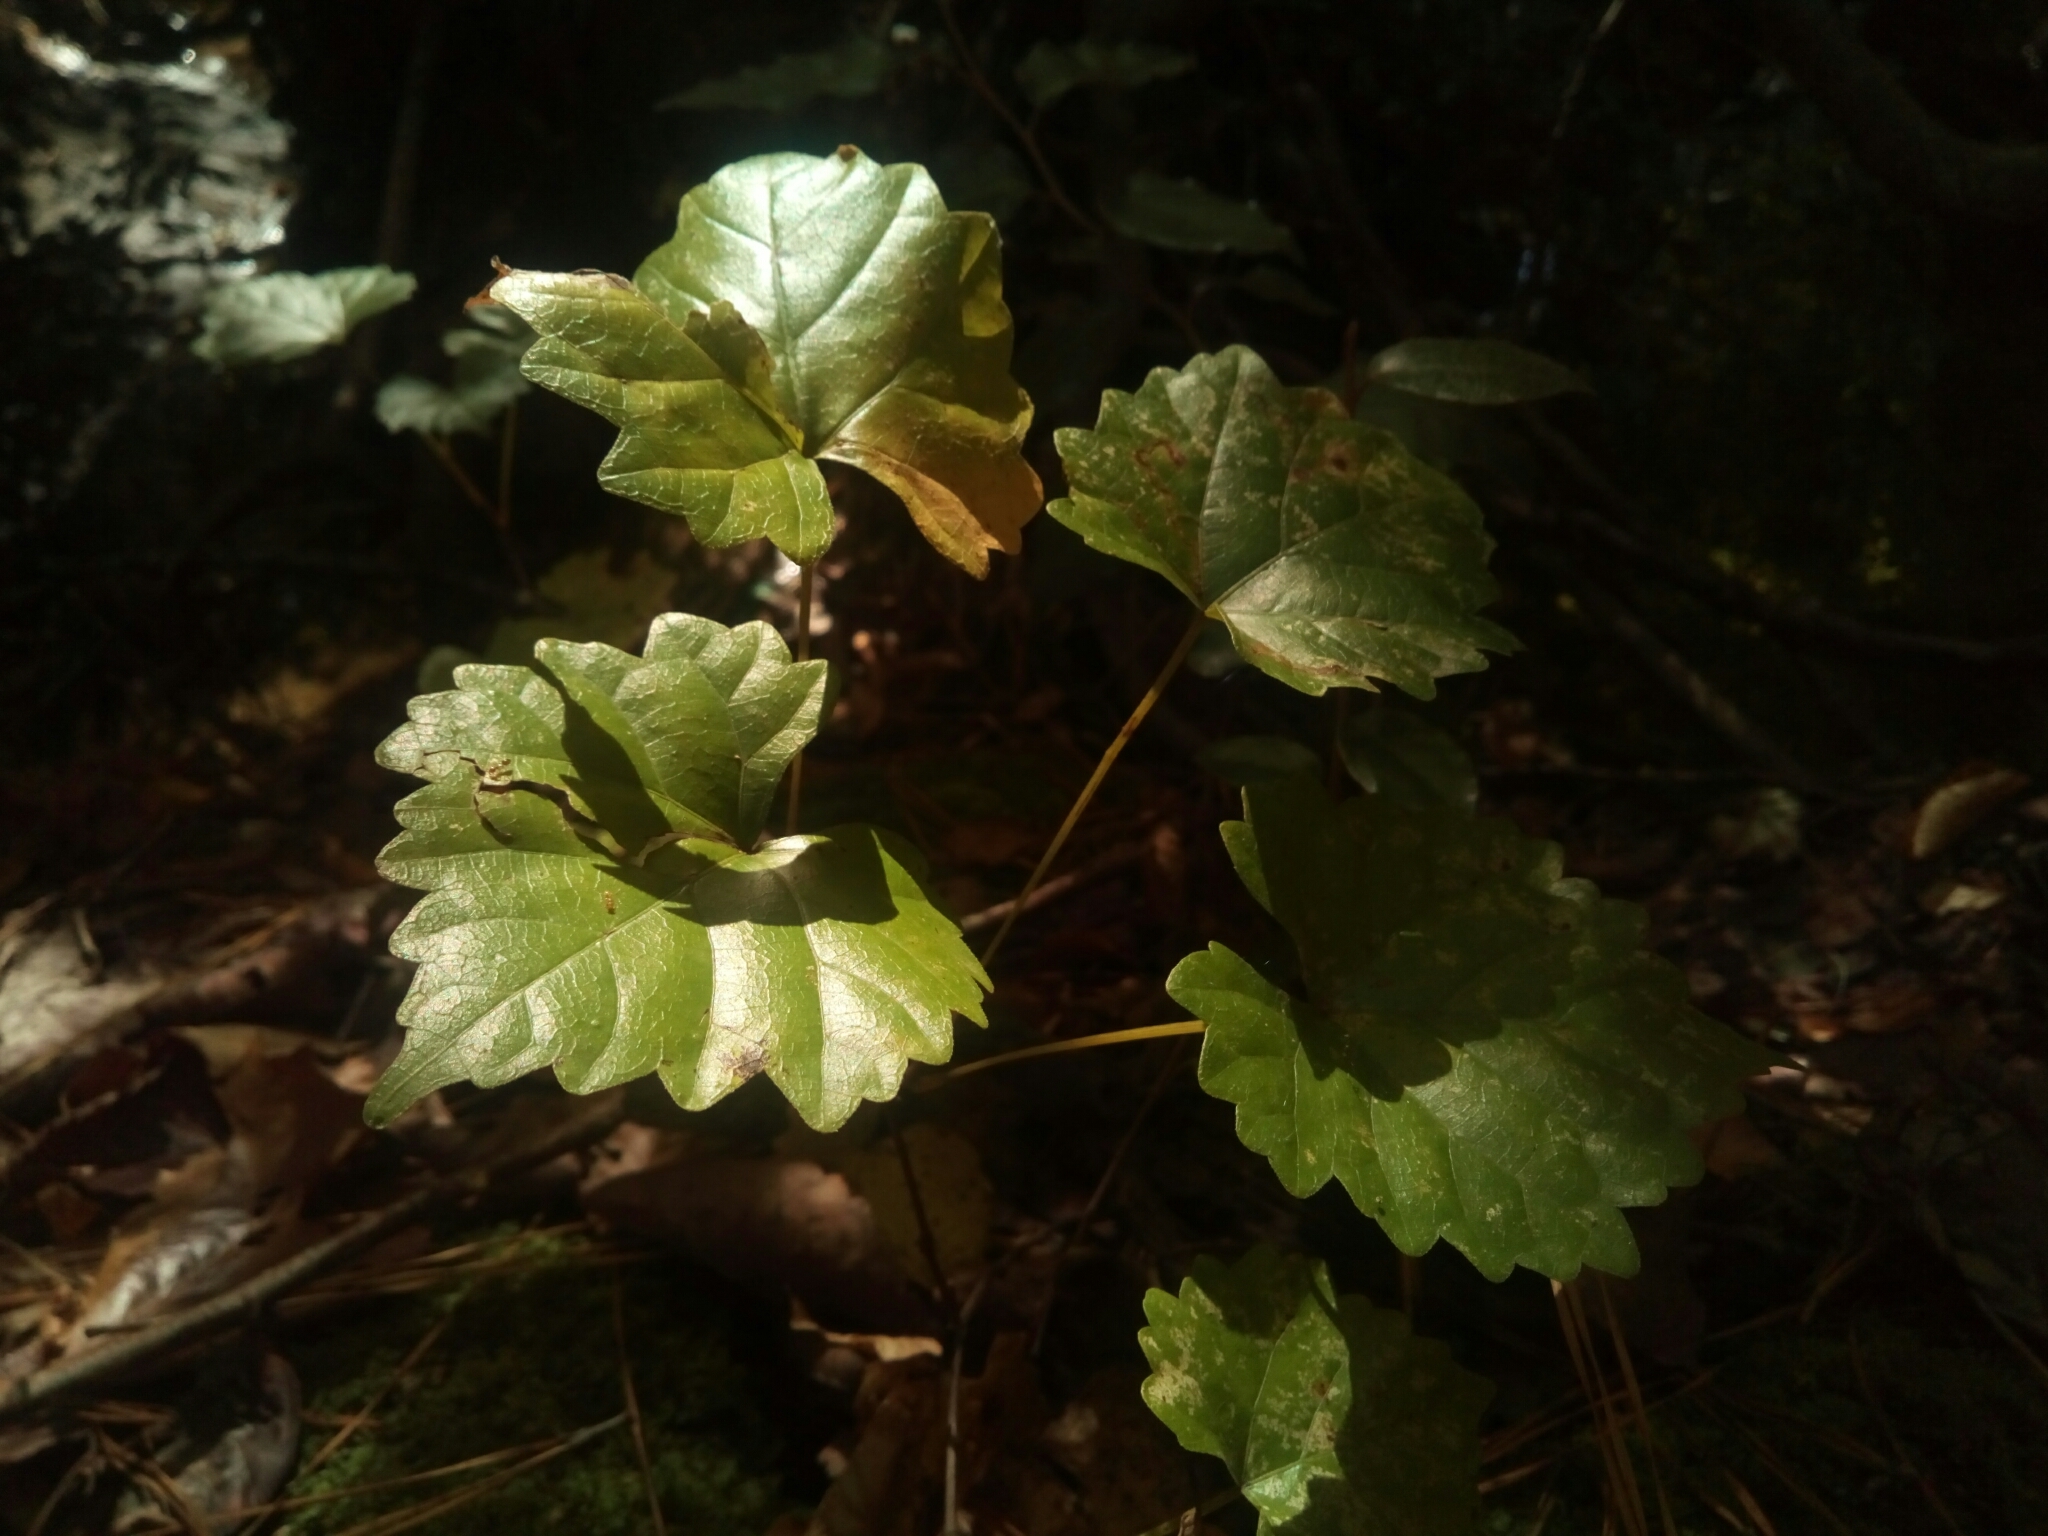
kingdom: Plantae
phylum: Tracheophyta
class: Magnoliopsida
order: Vitales
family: Vitaceae
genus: Vitis
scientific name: Vitis rotundifolia
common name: Muscadine grape
